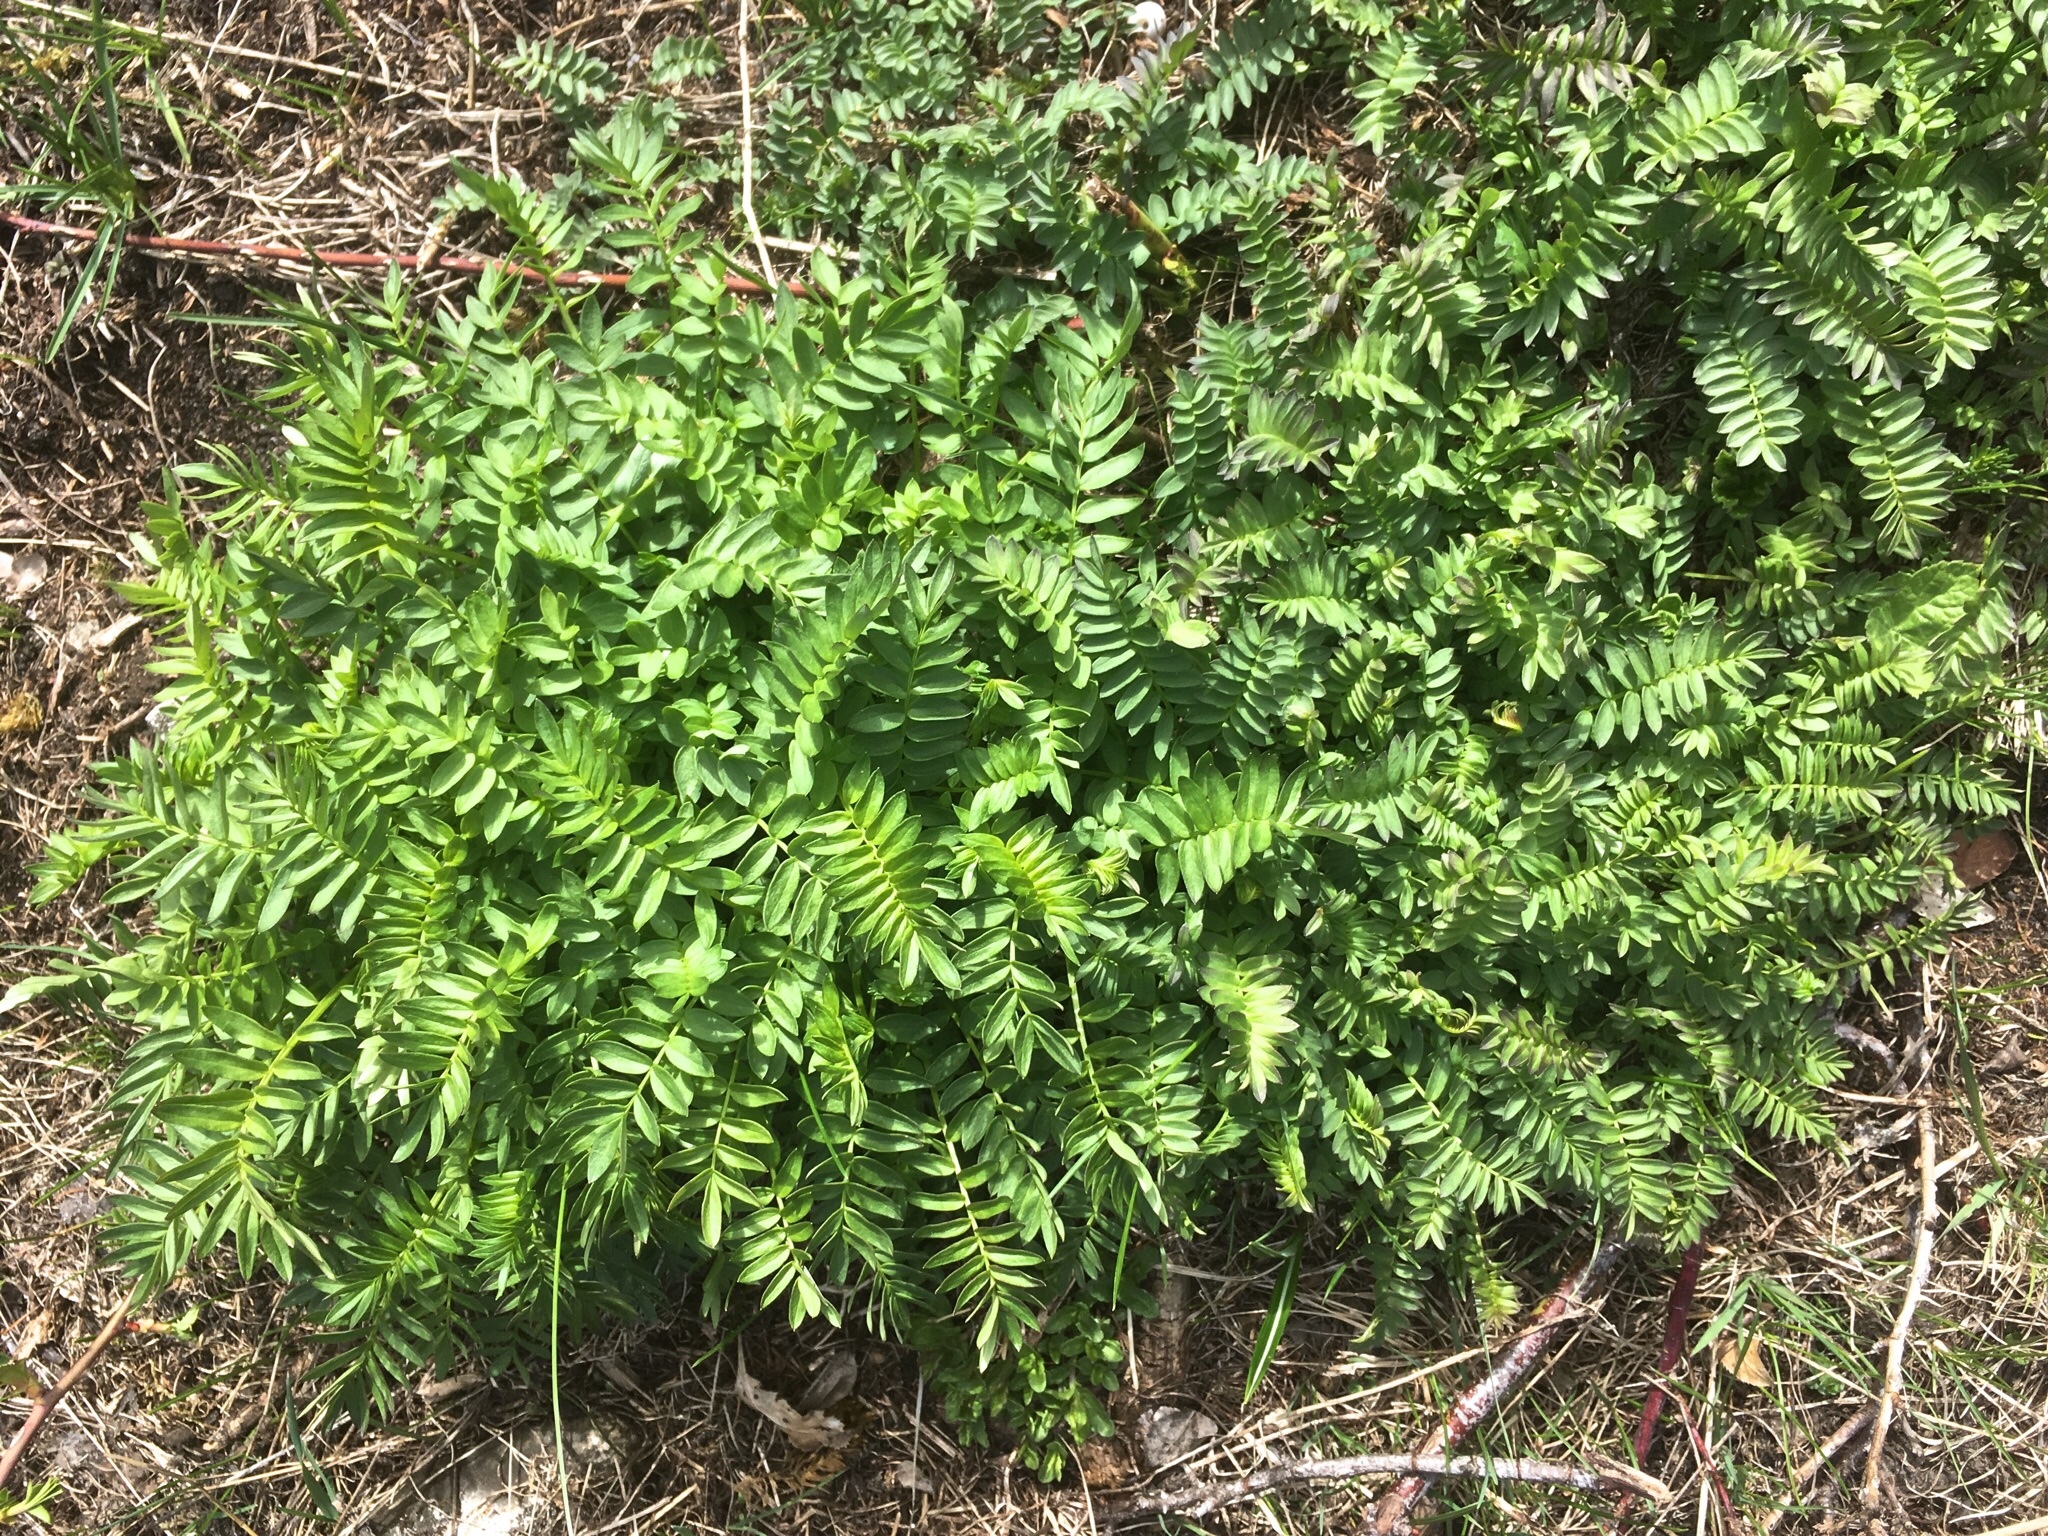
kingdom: Plantae
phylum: Tracheophyta
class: Magnoliopsida
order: Ericales
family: Polemoniaceae
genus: Polemonium
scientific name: Polemonium caeruleum
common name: Jacob's-ladder
